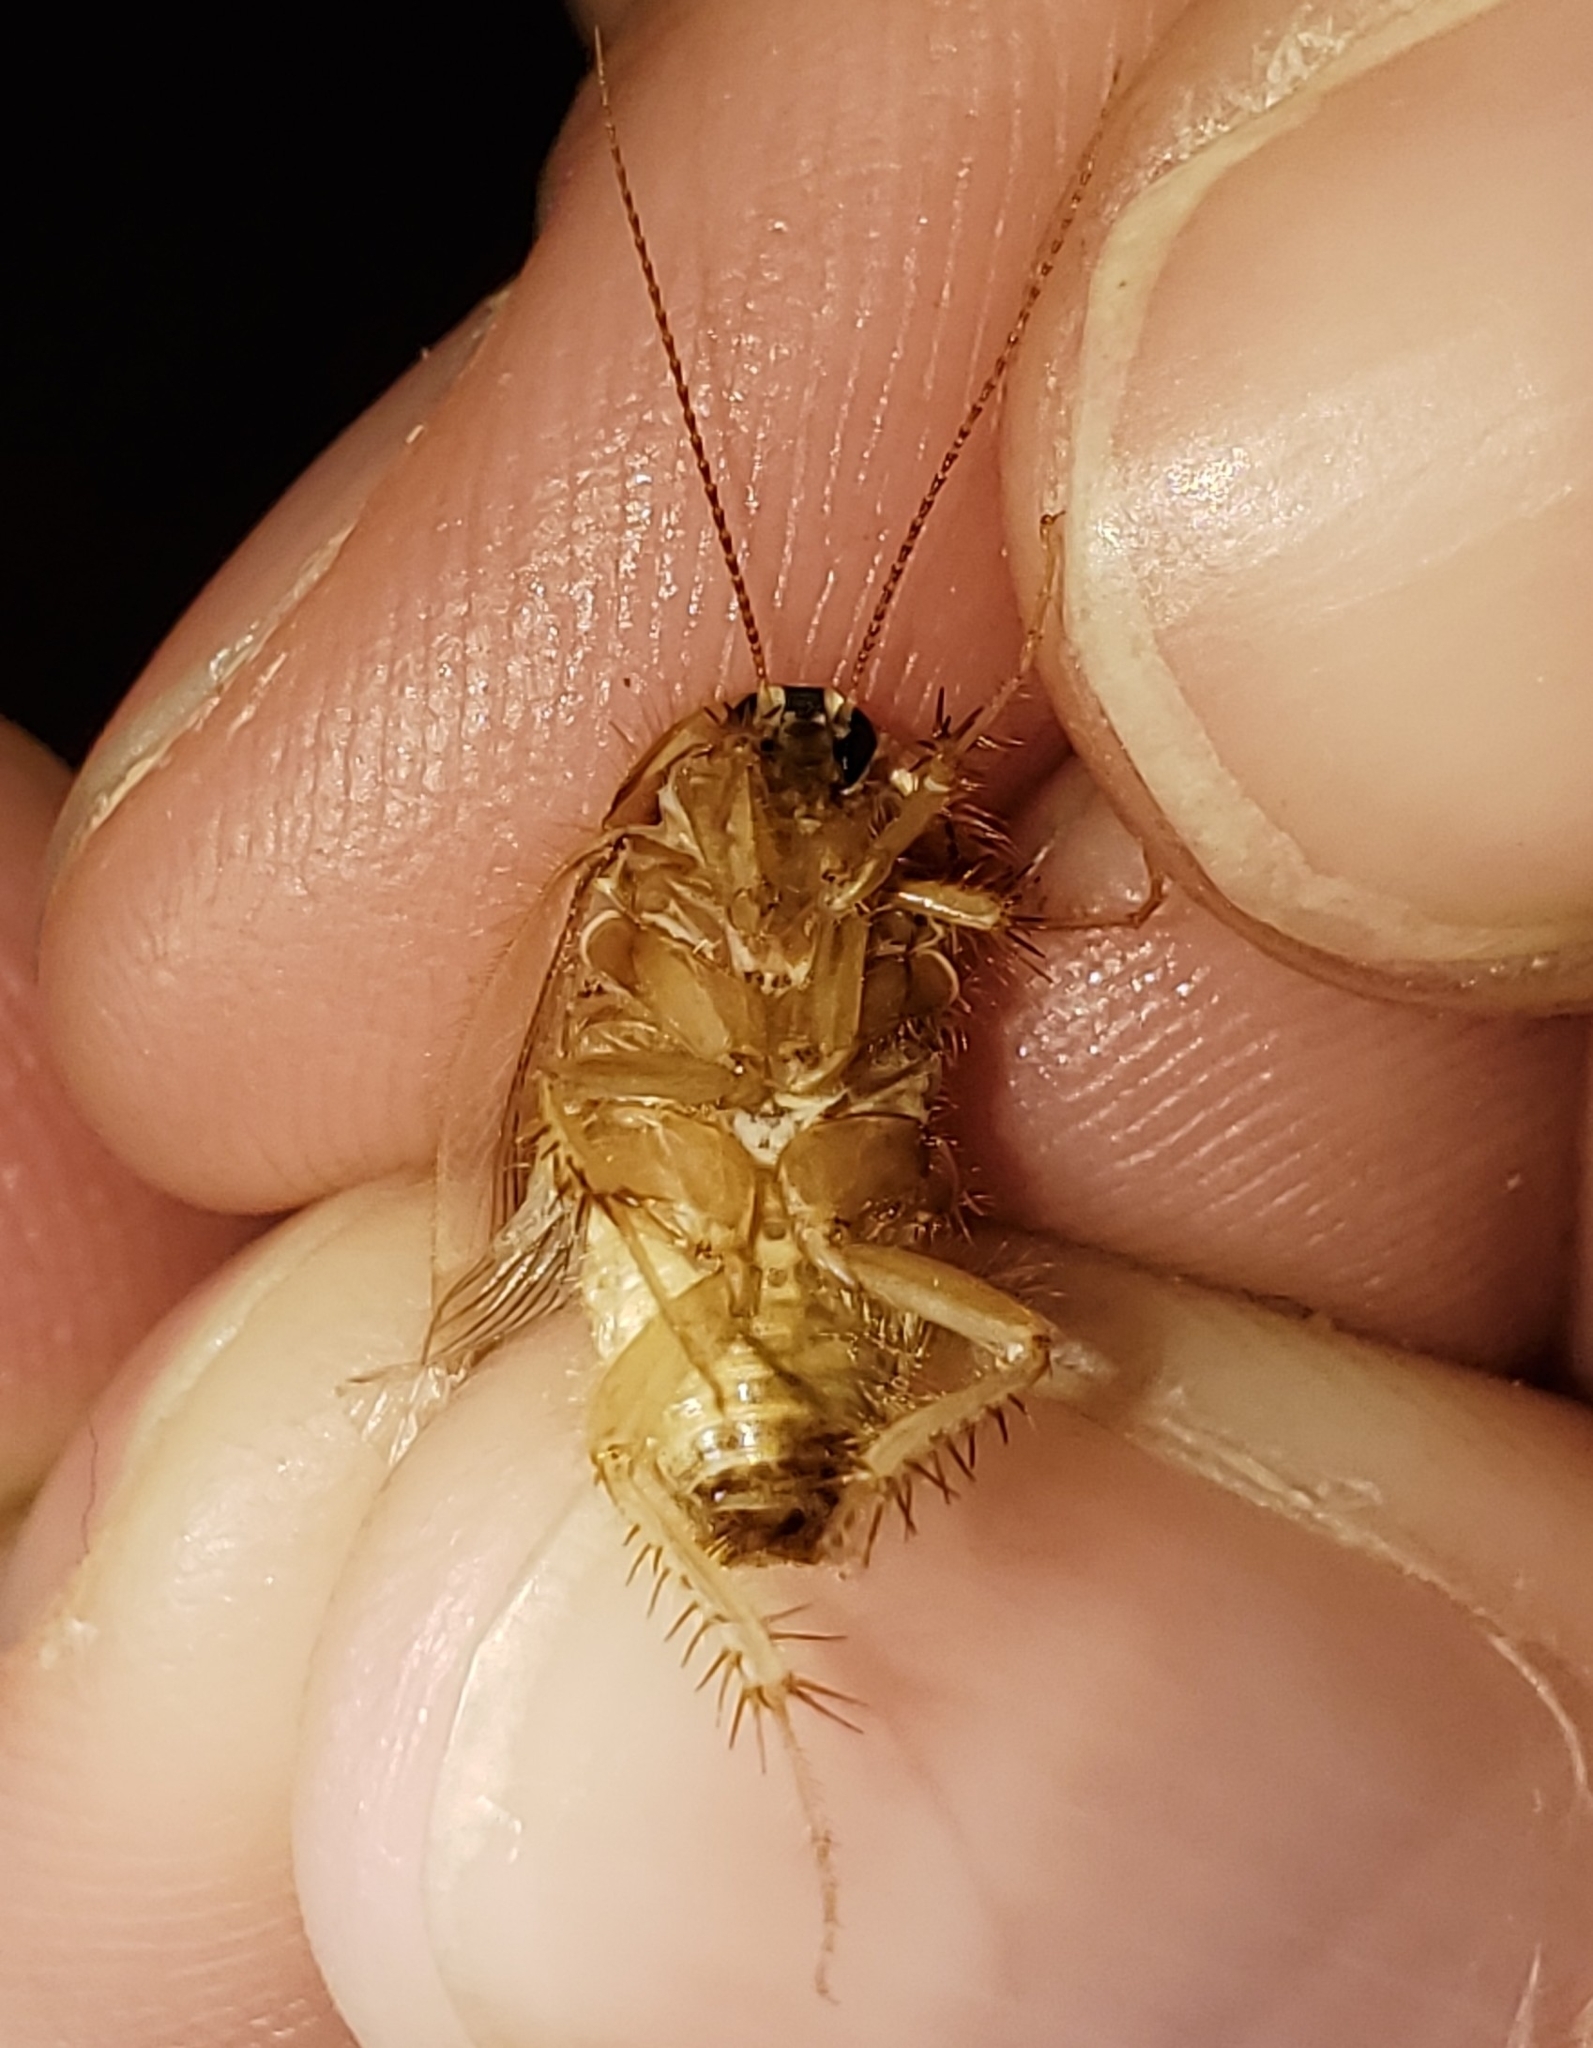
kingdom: Animalia
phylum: Arthropoda
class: Insecta
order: Blattodea
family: Corydiidae
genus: Eremoblatta
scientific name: Eremoblatta subdiaphana
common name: Hairy desert cockroach
